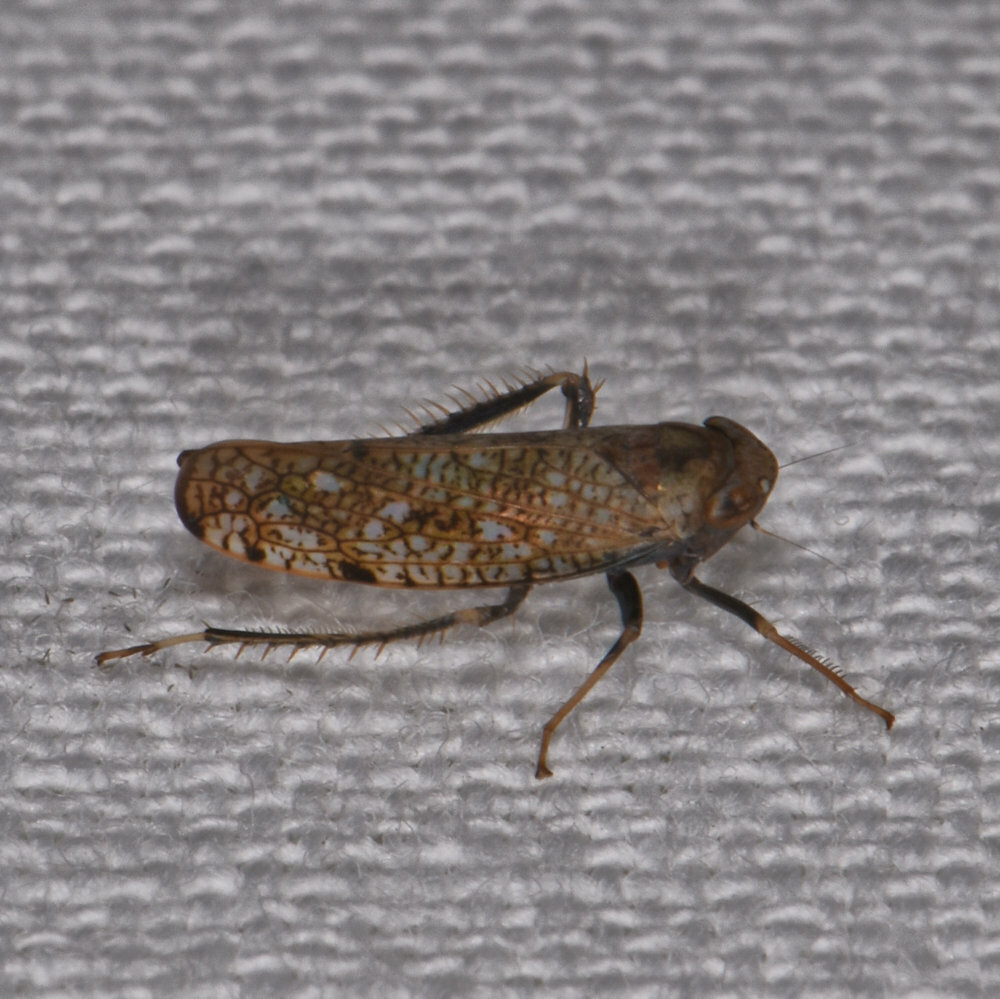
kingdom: Animalia
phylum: Arthropoda
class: Insecta
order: Hemiptera
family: Cicadellidae
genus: Orientus
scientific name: Orientus ishidae
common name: Japanese leafhopper
